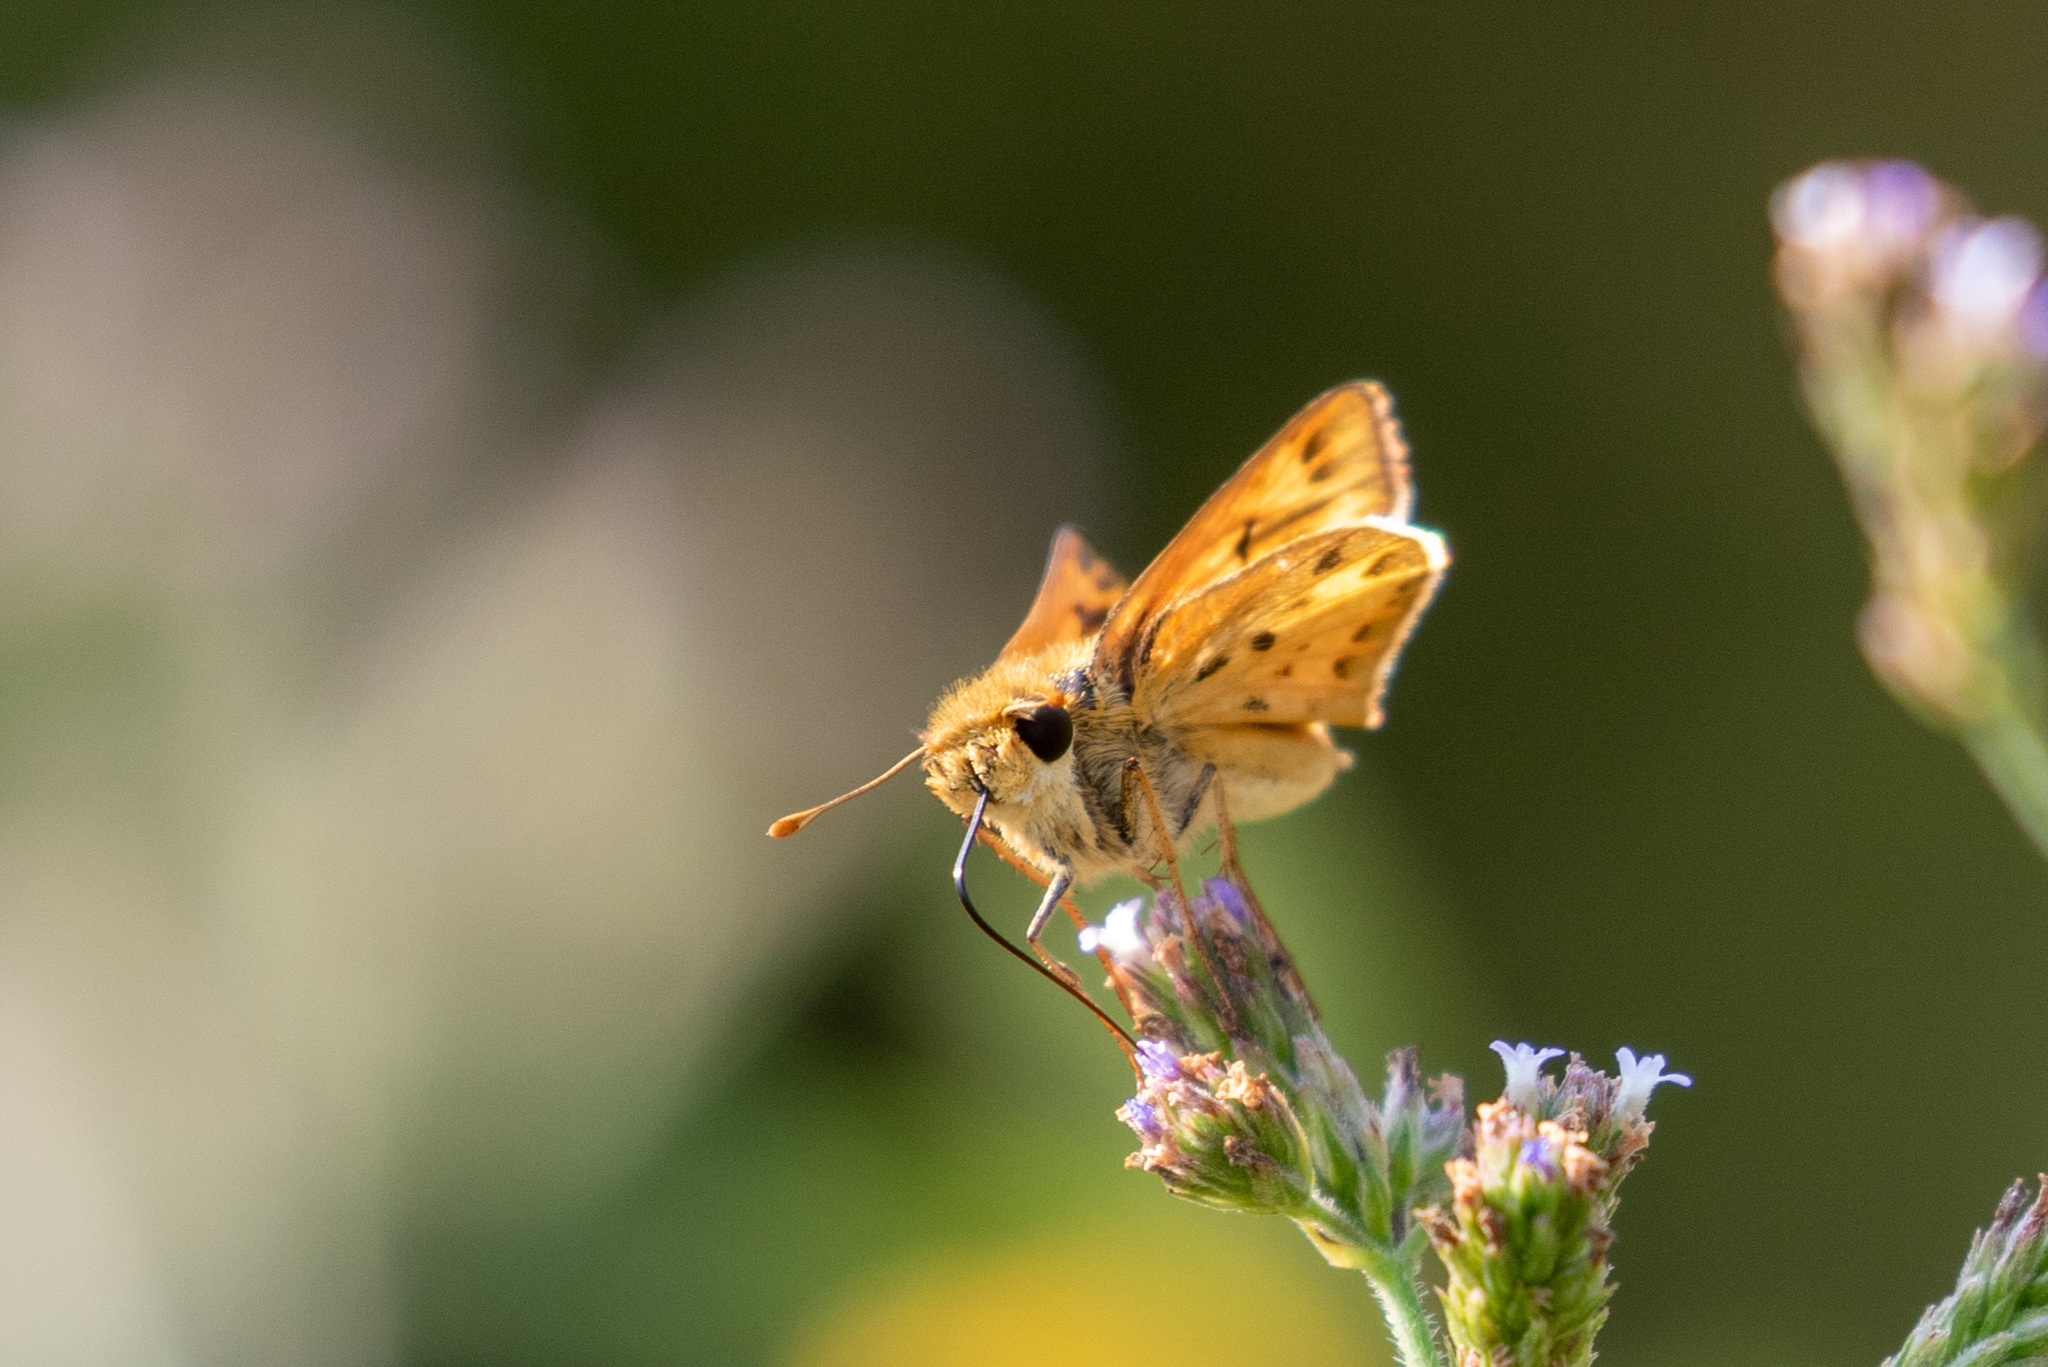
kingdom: Animalia
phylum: Arthropoda
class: Insecta
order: Lepidoptera
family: Hesperiidae
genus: Hylephila
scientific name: Hylephila phyleus
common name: Fiery skipper
